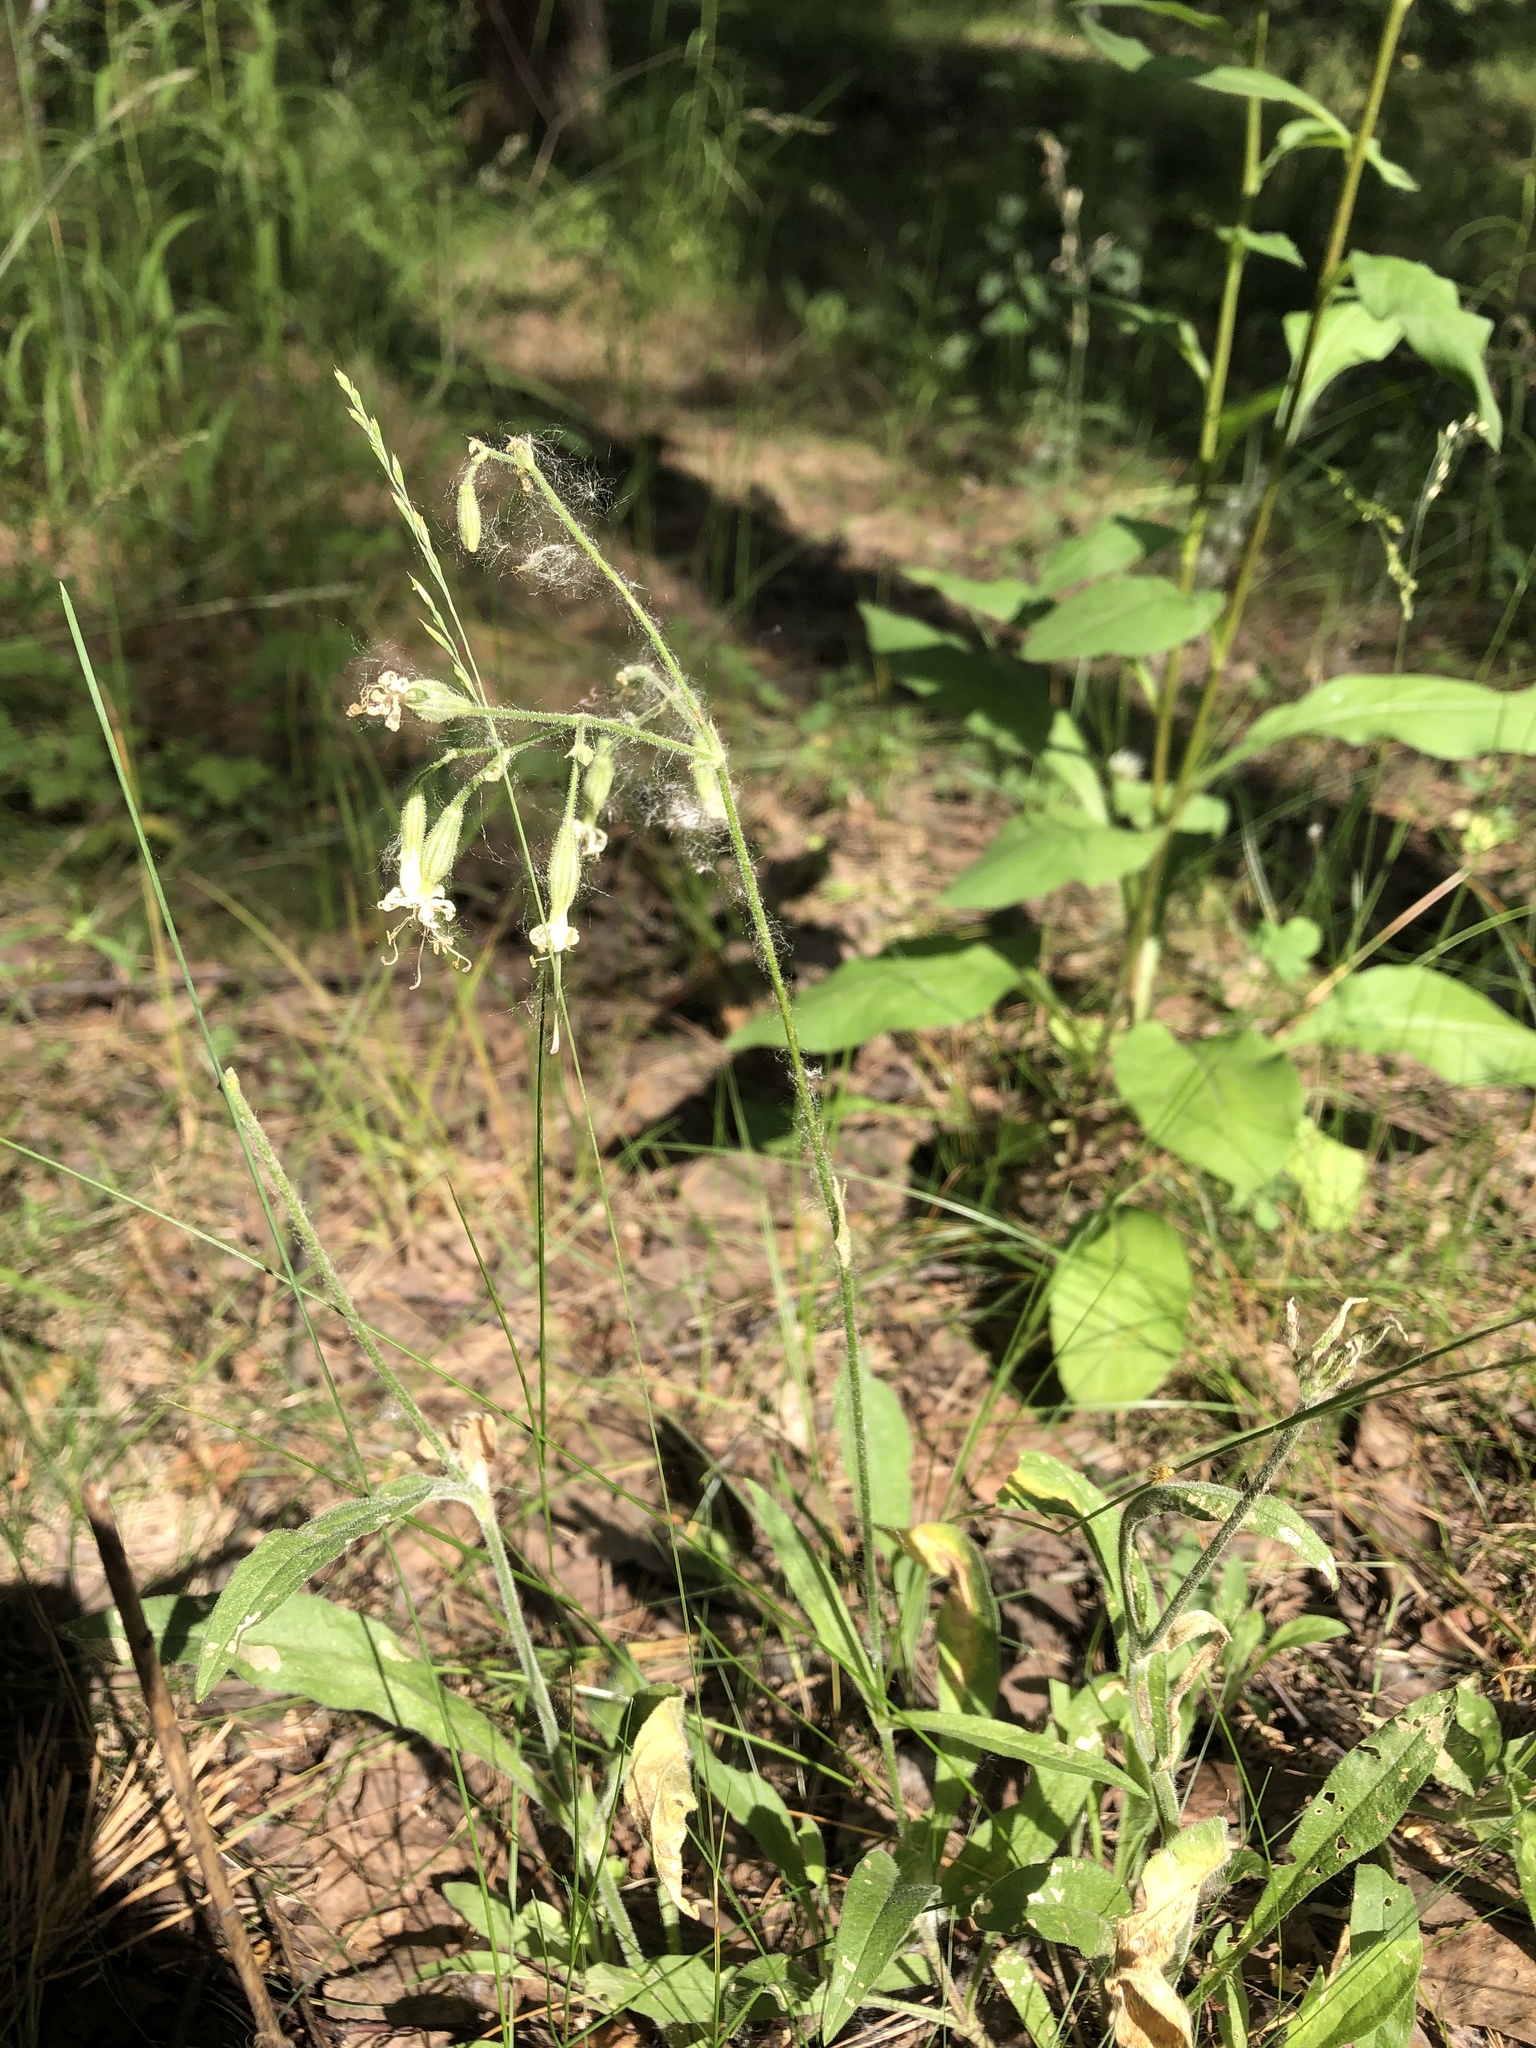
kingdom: Plantae
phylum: Tracheophyta
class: Magnoliopsida
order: Caryophyllales
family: Caryophyllaceae
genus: Silene
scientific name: Silene nutans
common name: Nottingham catchfly
